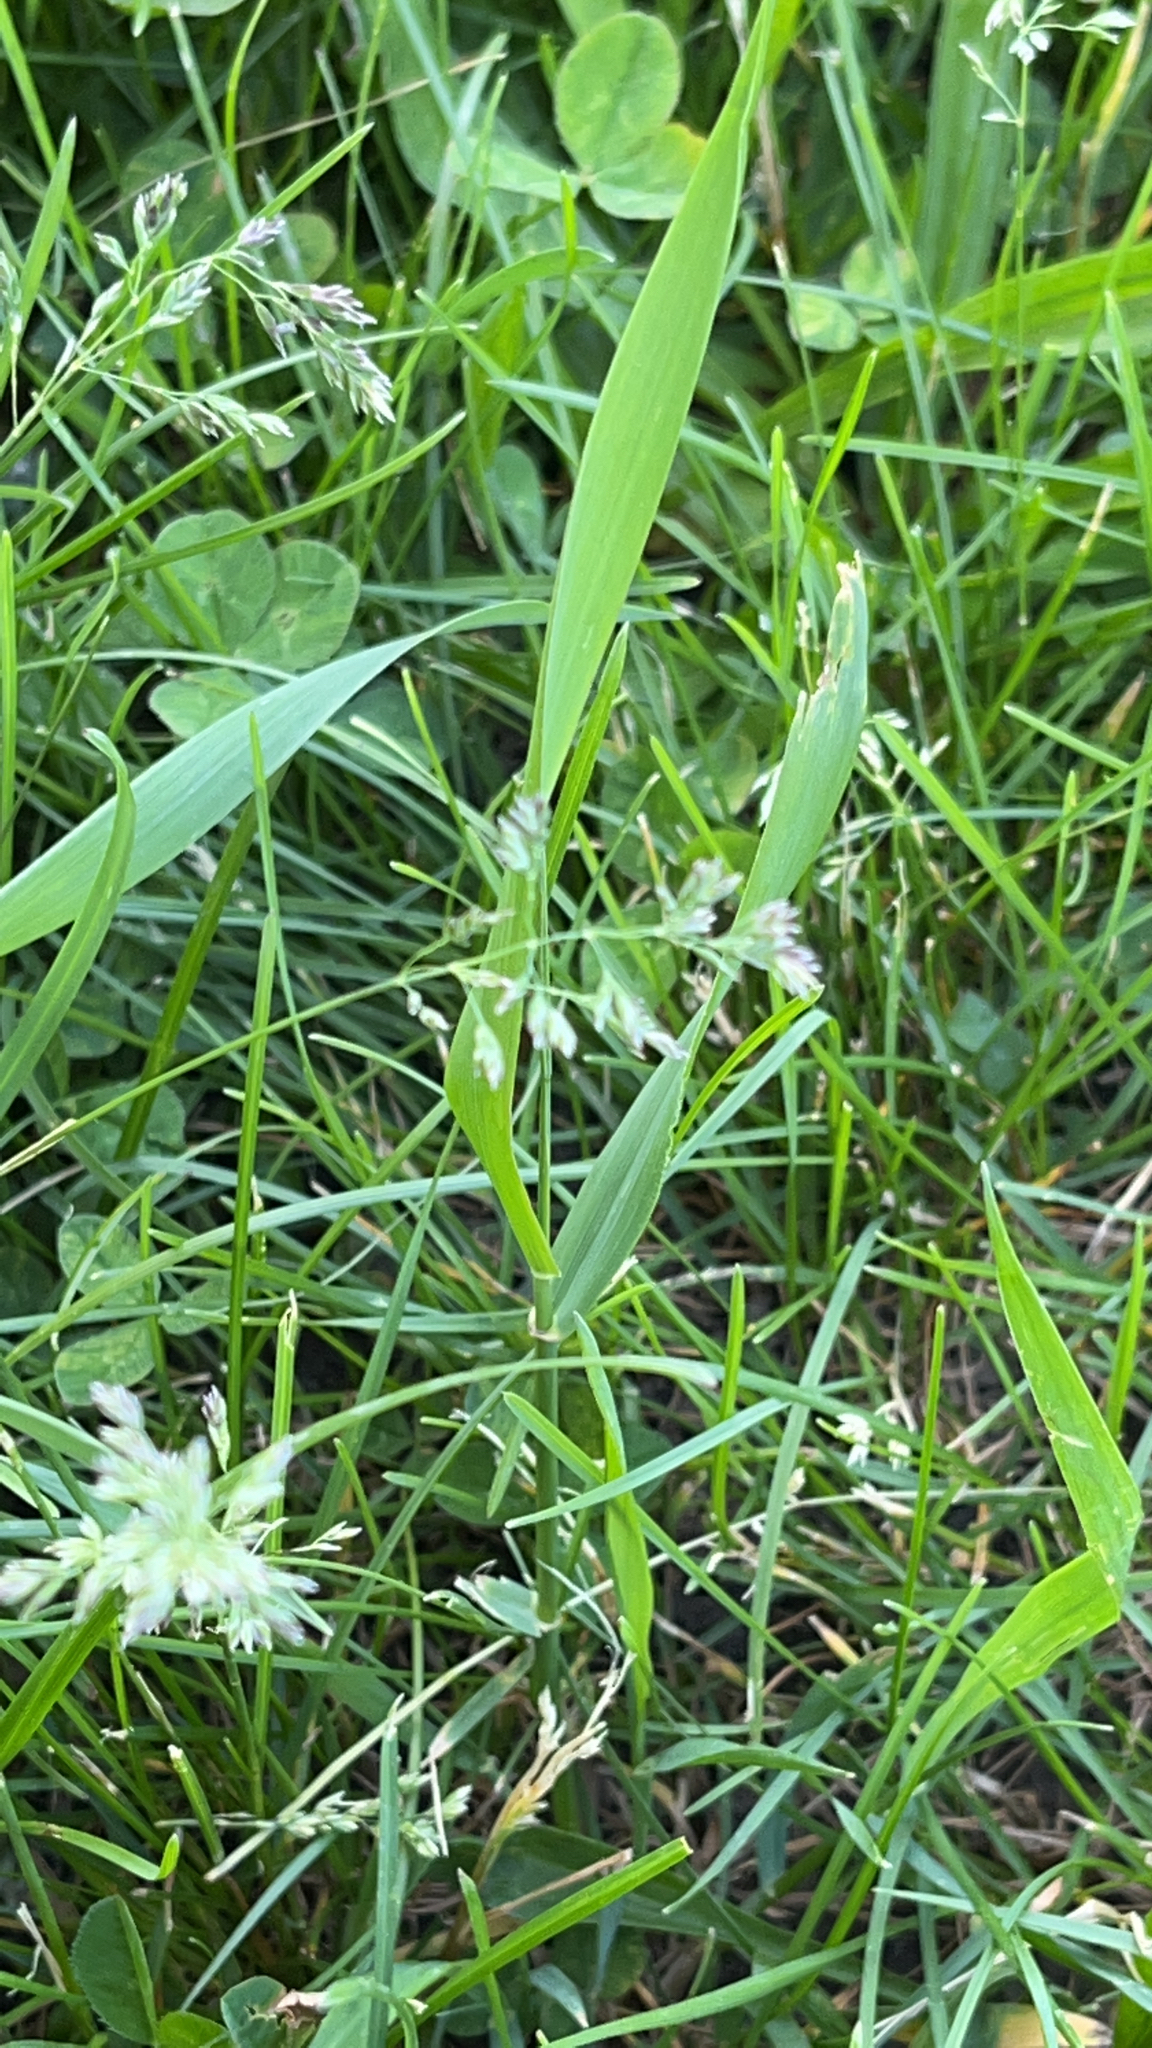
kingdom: Plantae
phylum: Tracheophyta
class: Liliopsida
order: Poales
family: Poaceae
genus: Poa
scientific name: Poa annua
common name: Annual bluegrass
